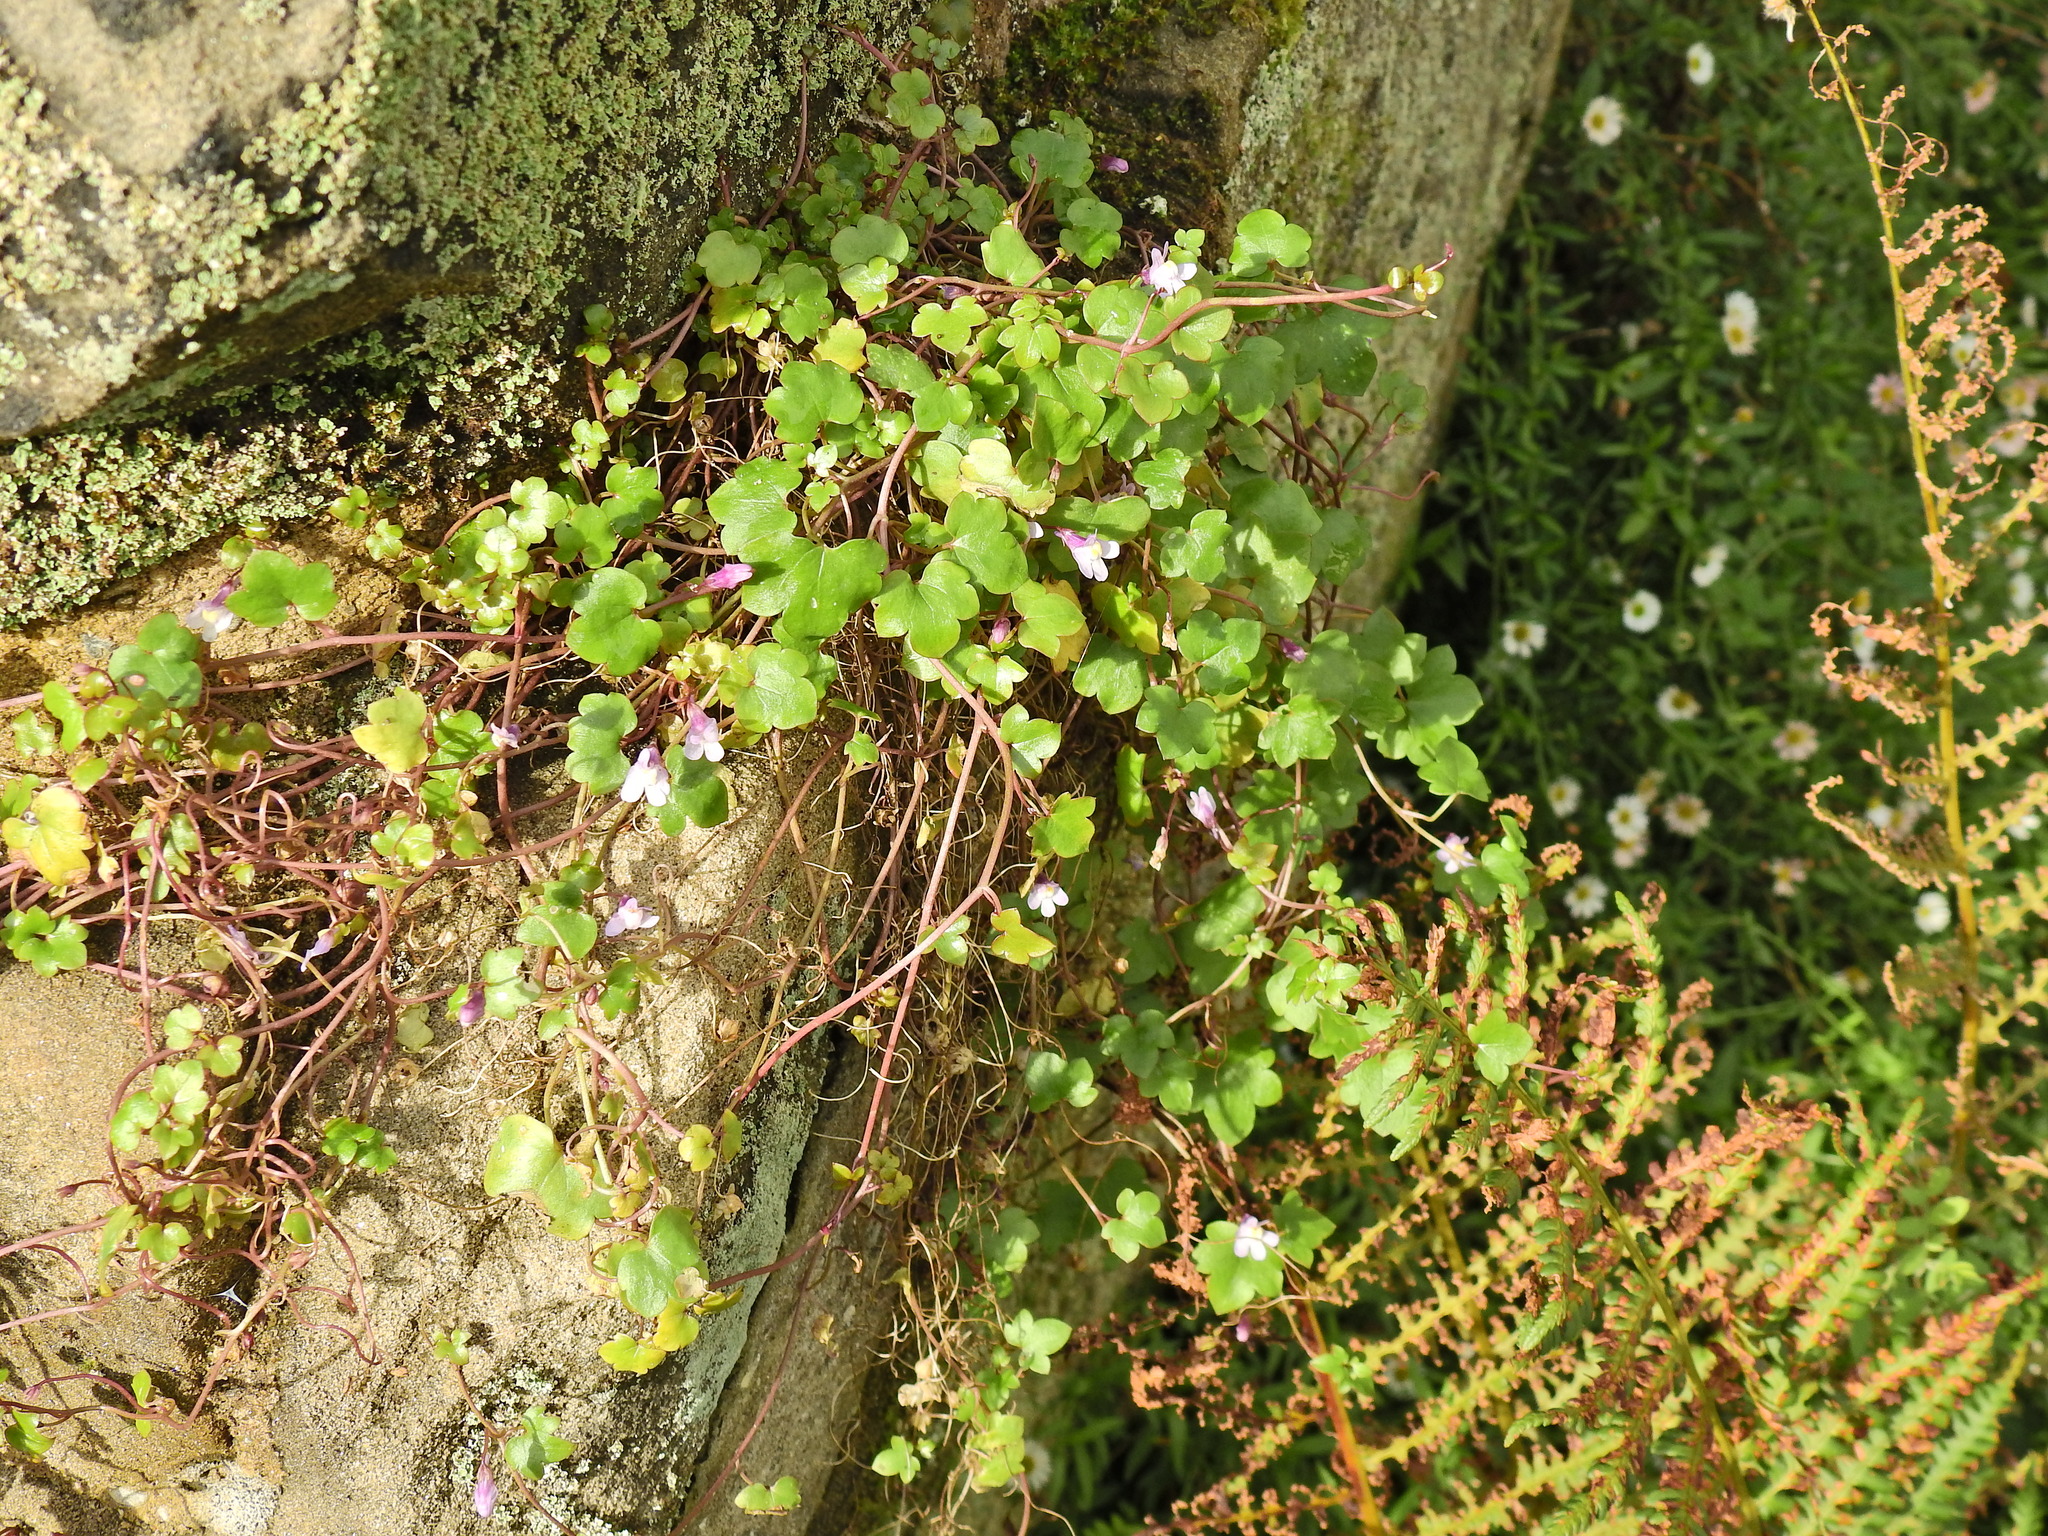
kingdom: Plantae
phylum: Tracheophyta
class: Magnoliopsida
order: Lamiales
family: Plantaginaceae
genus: Cymbalaria
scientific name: Cymbalaria muralis
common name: Ivy-leaved toadflax
